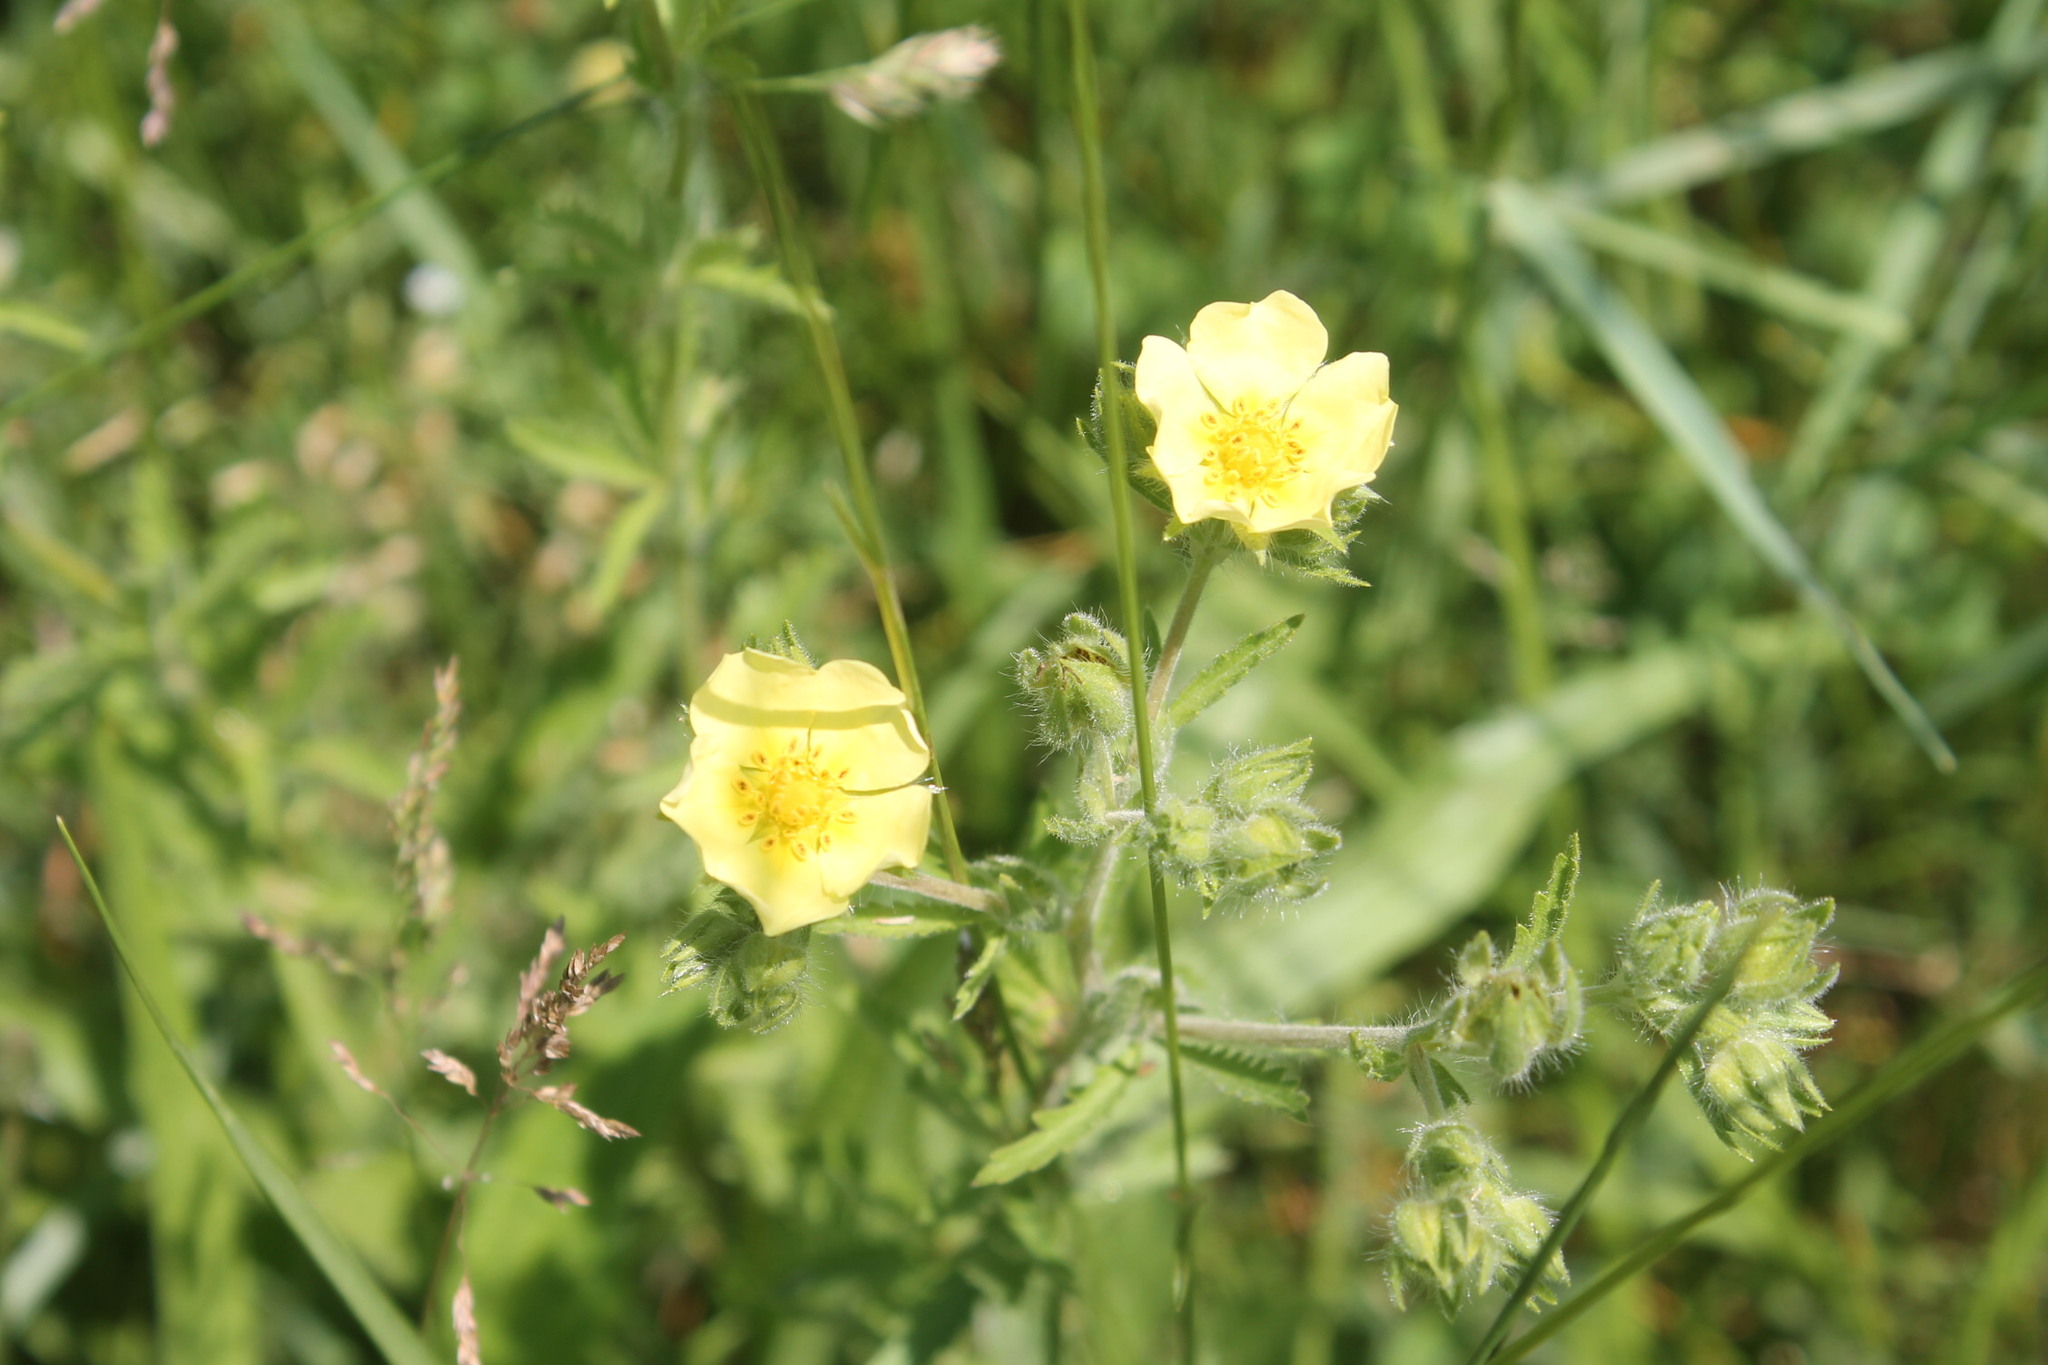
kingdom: Plantae
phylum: Tracheophyta
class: Magnoliopsida
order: Rosales
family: Rosaceae
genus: Potentilla
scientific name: Potentilla recta
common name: Sulphur cinquefoil
